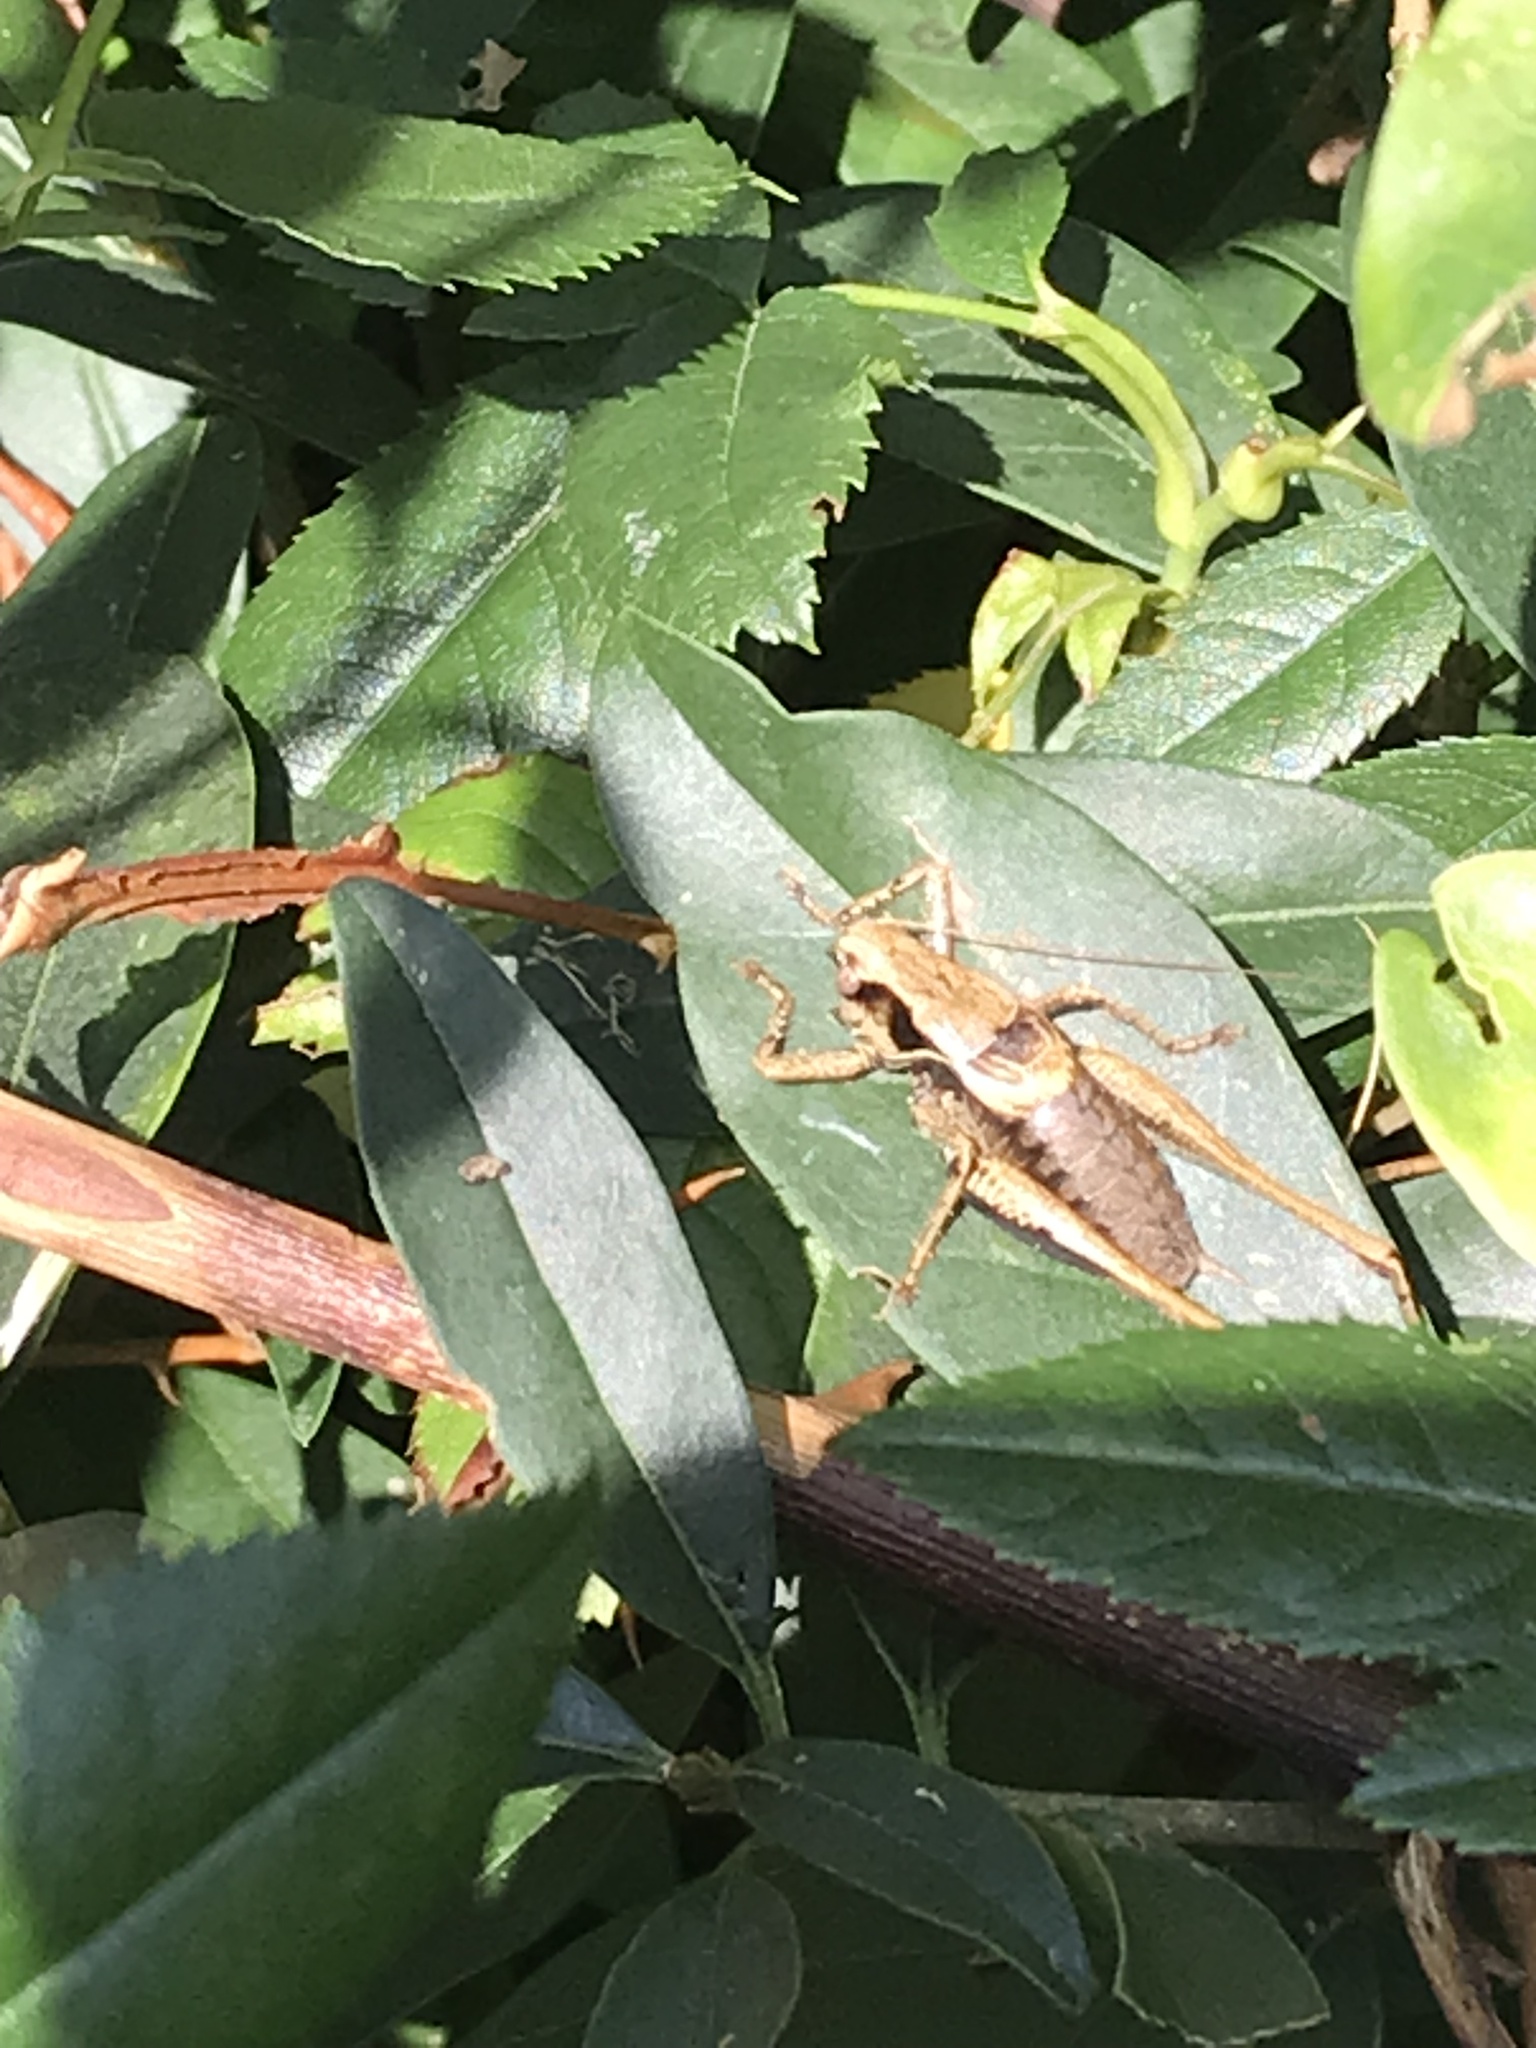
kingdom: Animalia
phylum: Arthropoda
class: Insecta
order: Orthoptera
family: Tettigoniidae
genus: Pholidoptera
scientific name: Pholidoptera griseoaptera
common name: Dark bush-cricket
